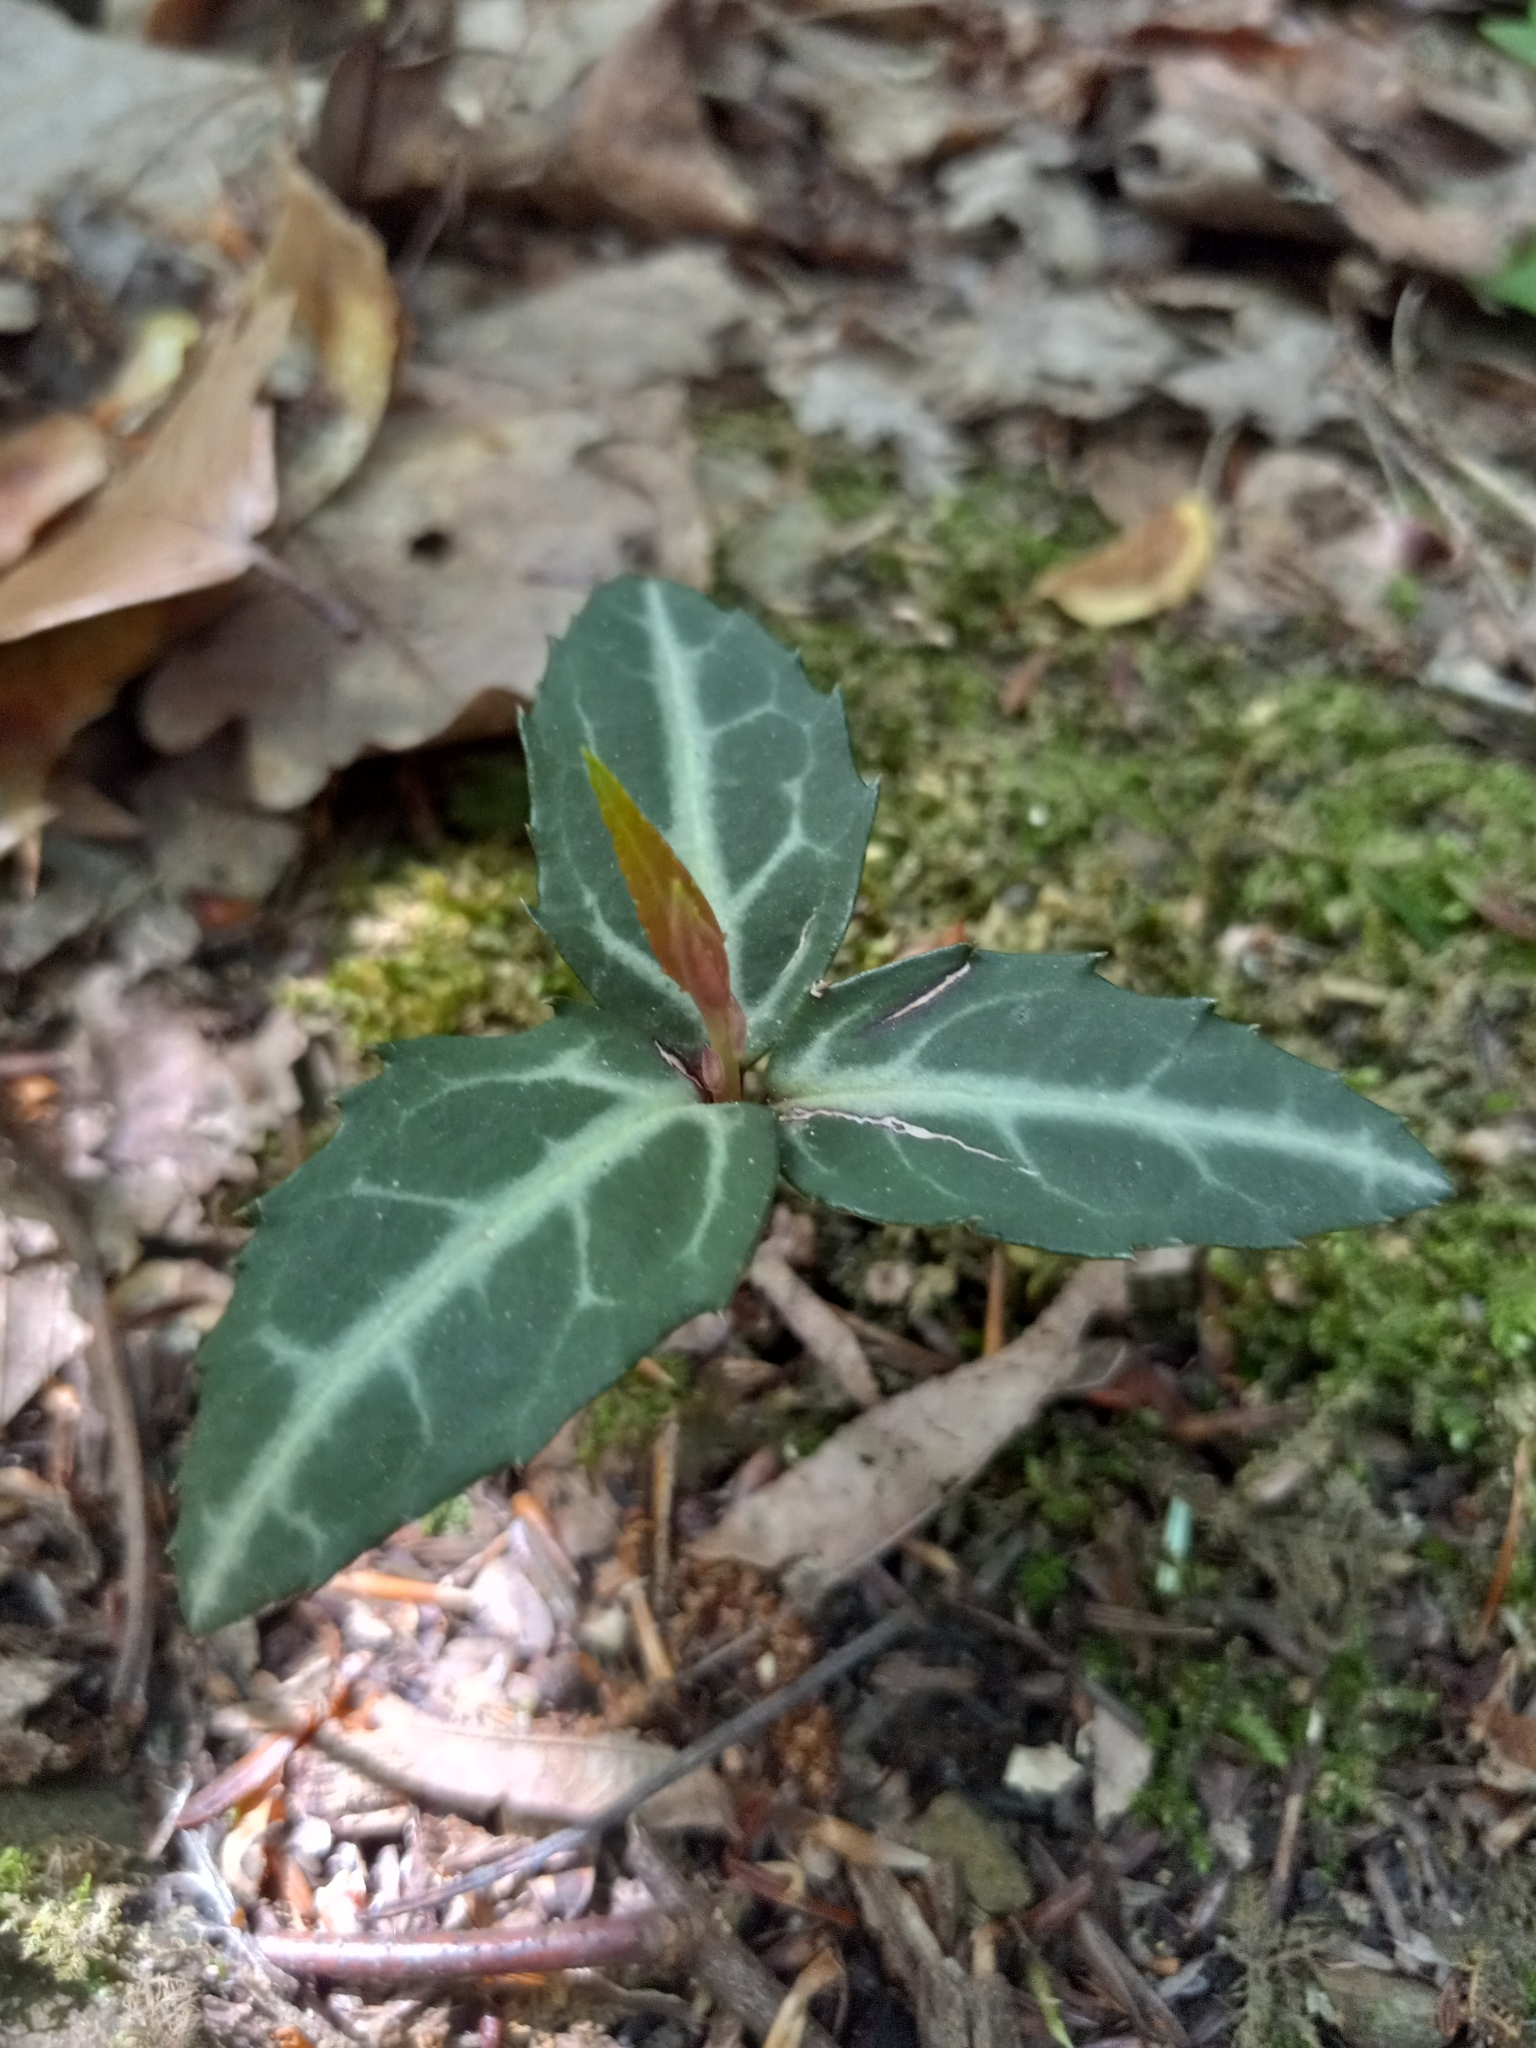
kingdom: Plantae
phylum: Tracheophyta
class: Magnoliopsida
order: Ericales
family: Ericaceae
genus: Chimaphila
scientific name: Chimaphila maculata
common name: Spotted pipsissewa
